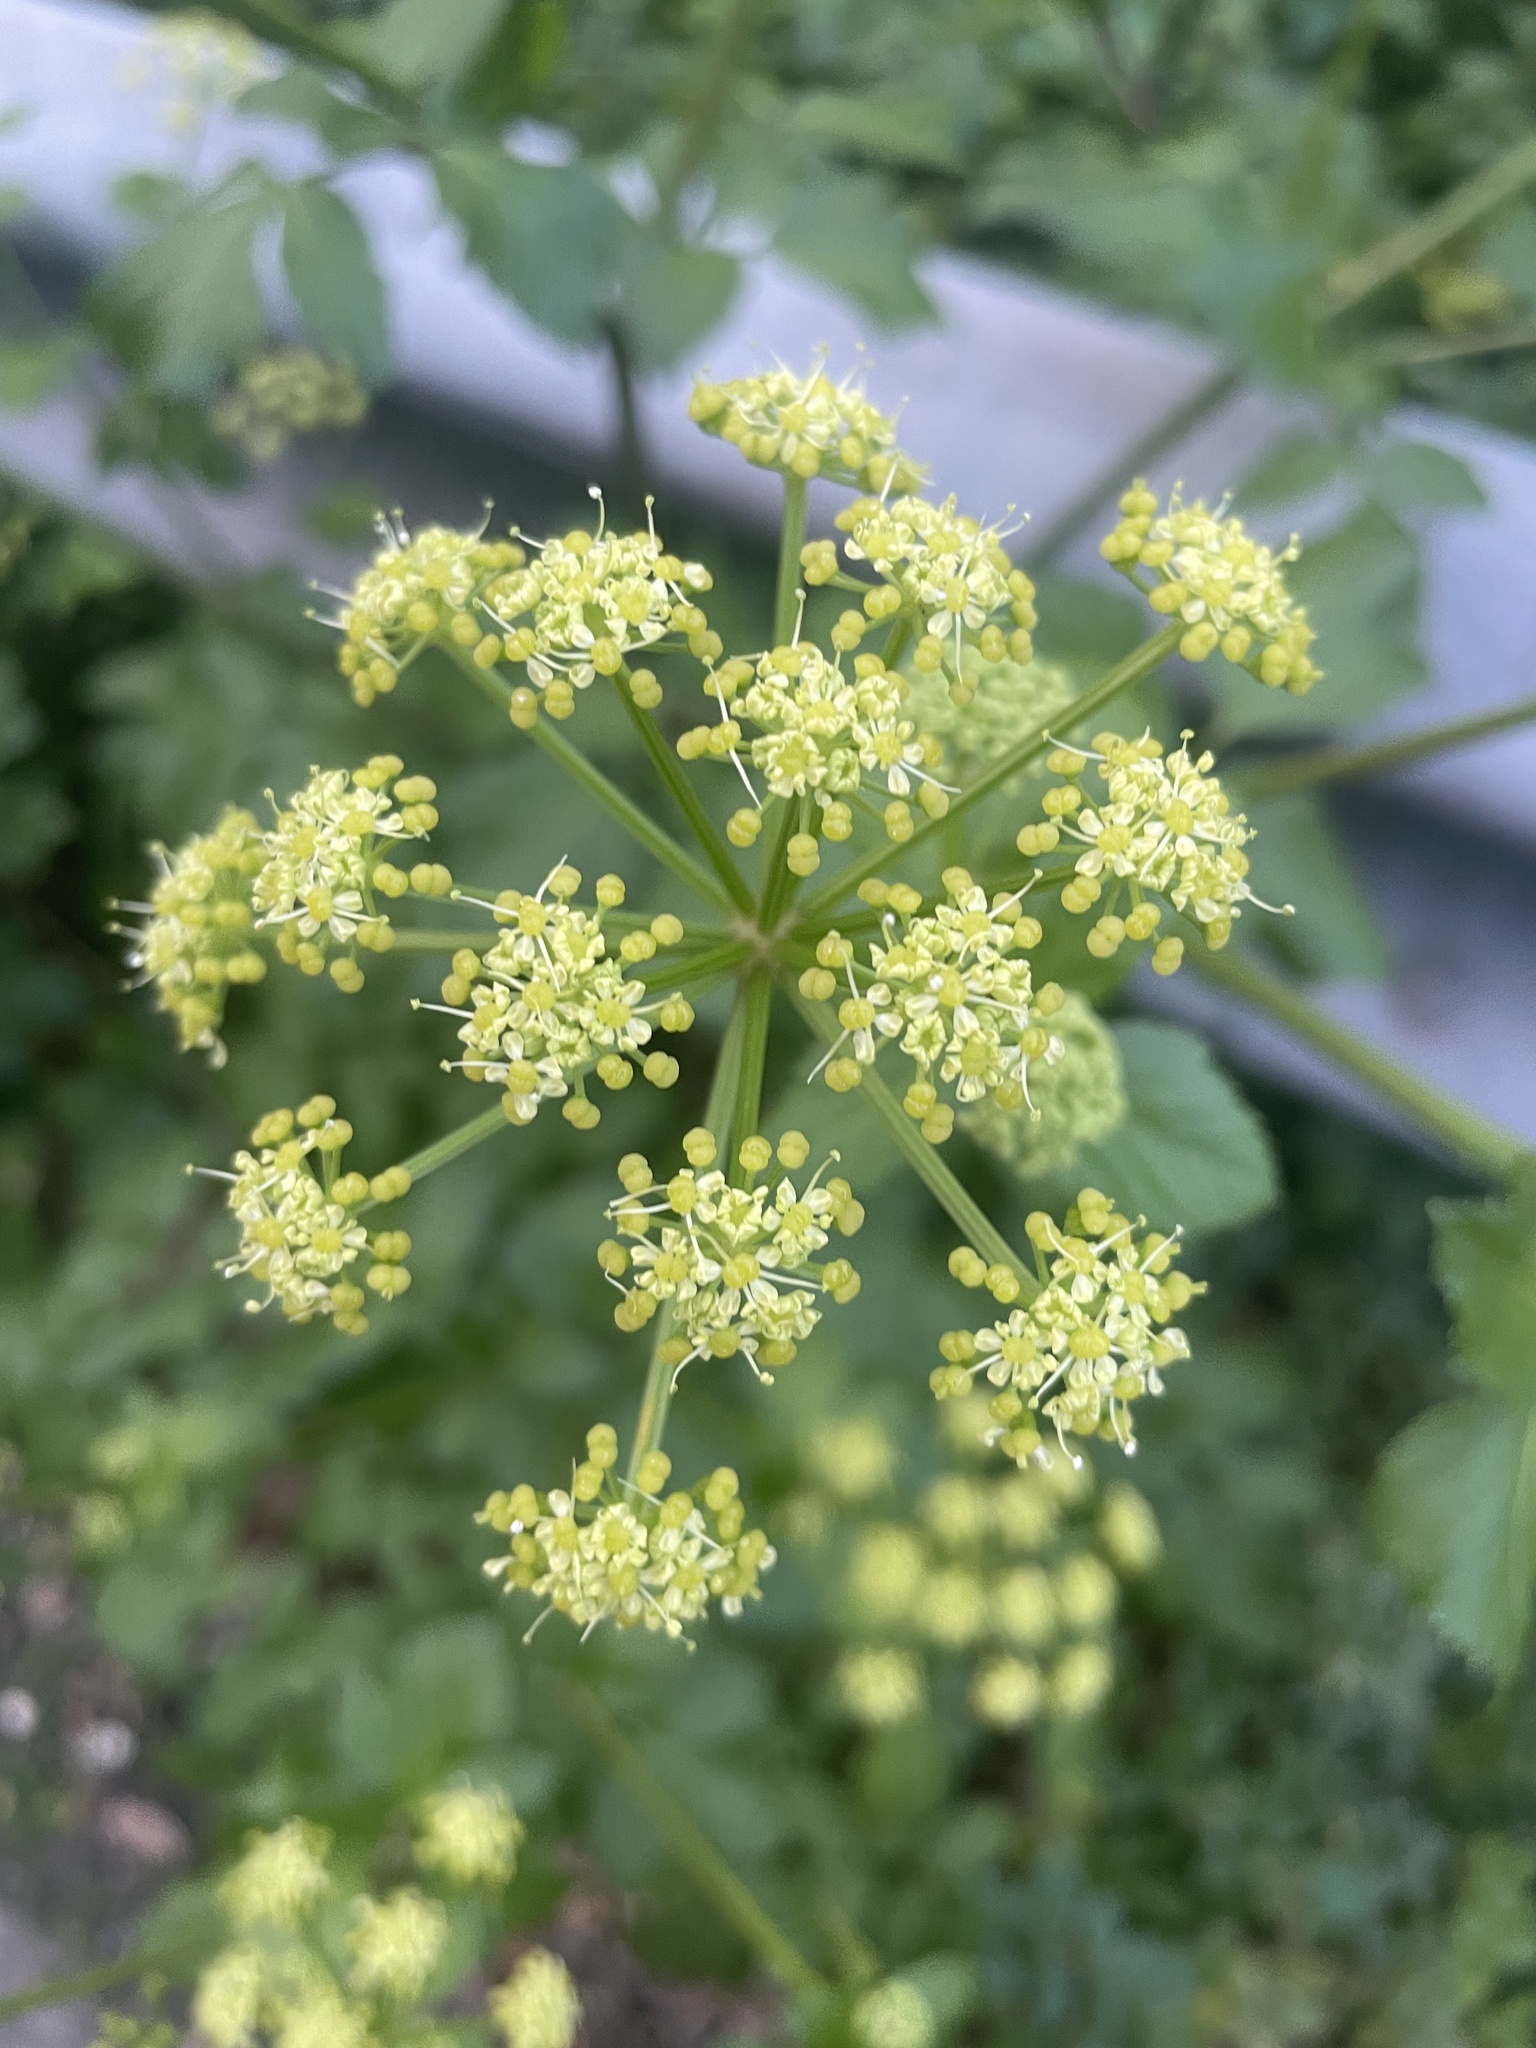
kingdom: Plantae
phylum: Tracheophyta
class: Magnoliopsida
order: Apiales
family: Apiaceae
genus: Smyrnium
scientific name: Smyrnium olusatrum
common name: Alexanders
